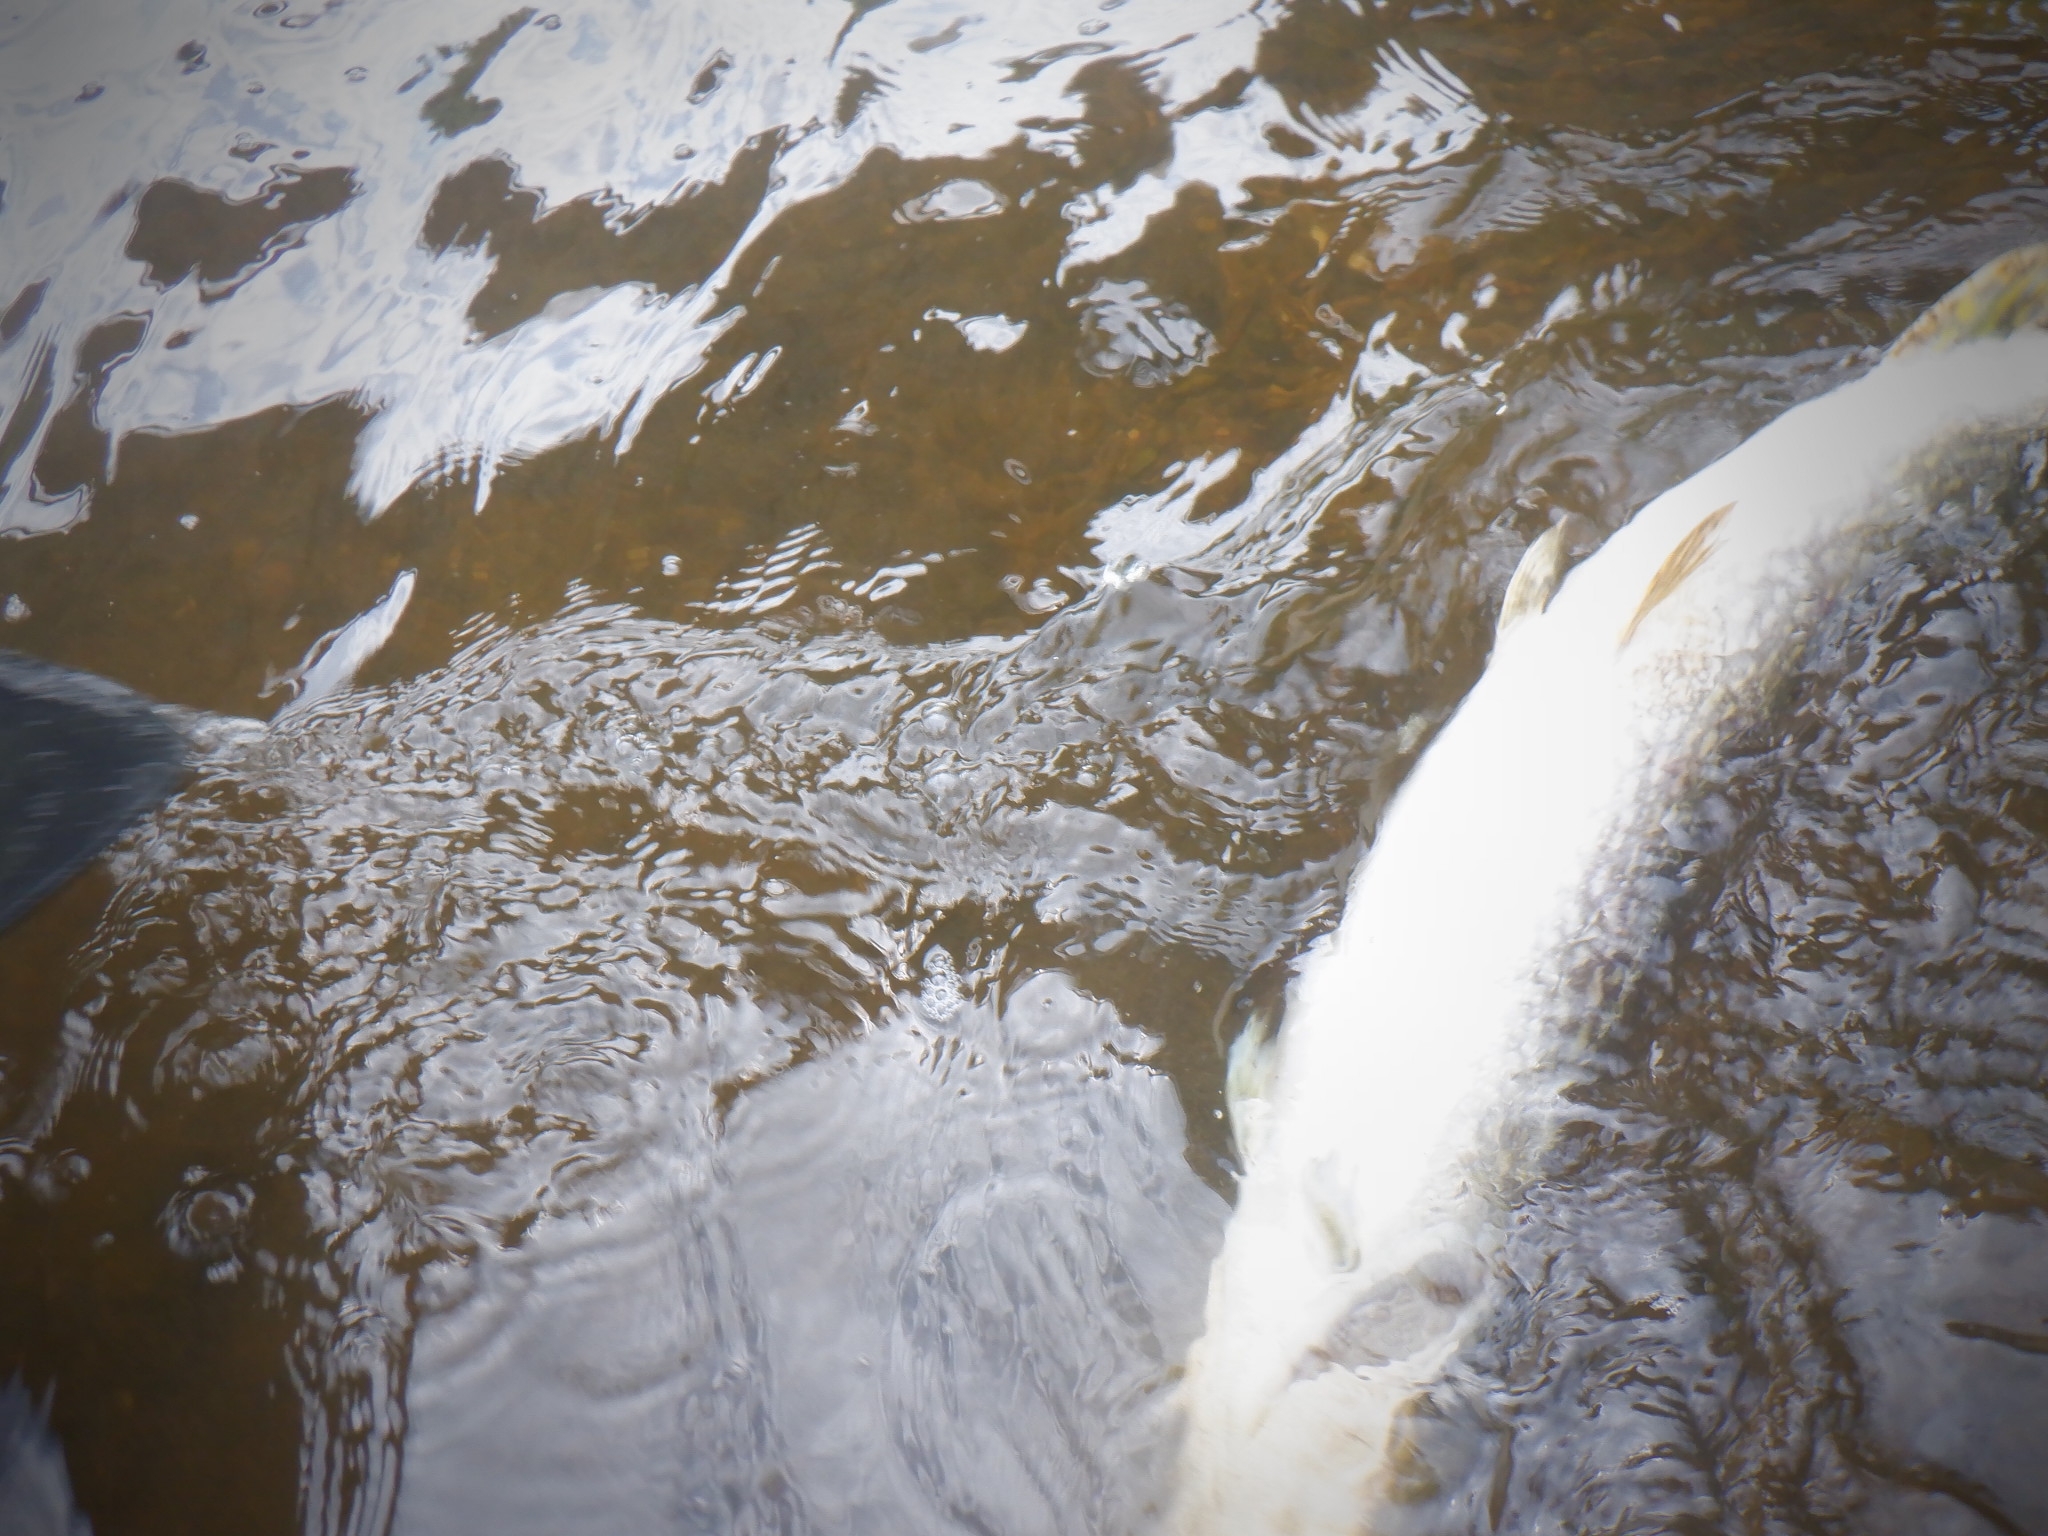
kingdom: Animalia
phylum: Chordata
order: Esociformes
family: Esocidae
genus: Esox
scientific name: Esox lucius
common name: Northern pike
